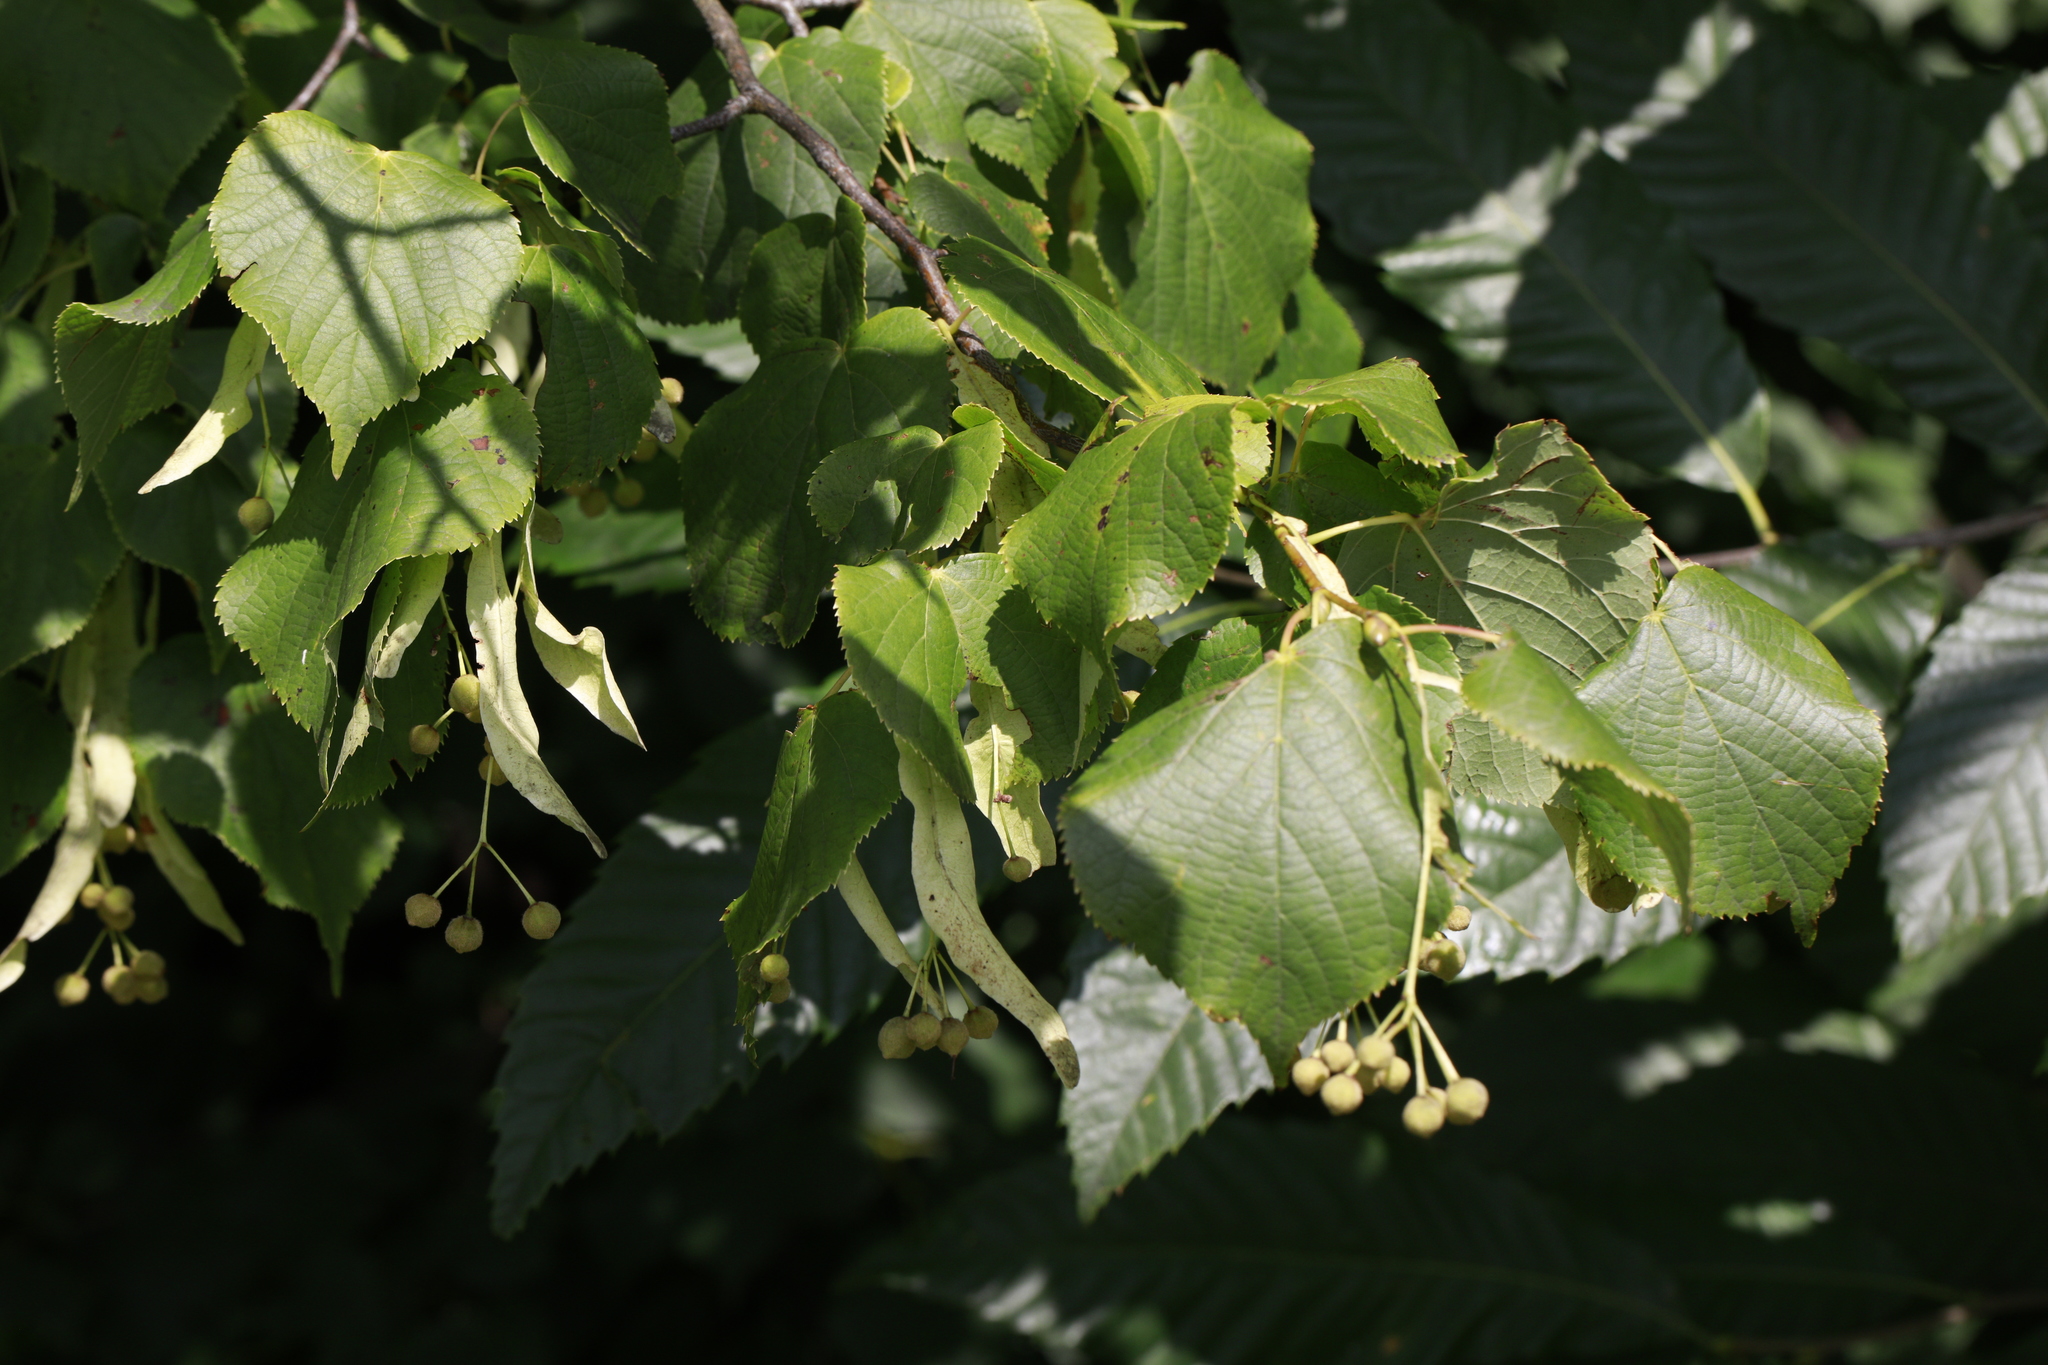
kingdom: Plantae
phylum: Tracheophyta
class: Magnoliopsida
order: Malvales
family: Malvaceae
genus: Tilia
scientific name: Tilia europaea
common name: European linden
